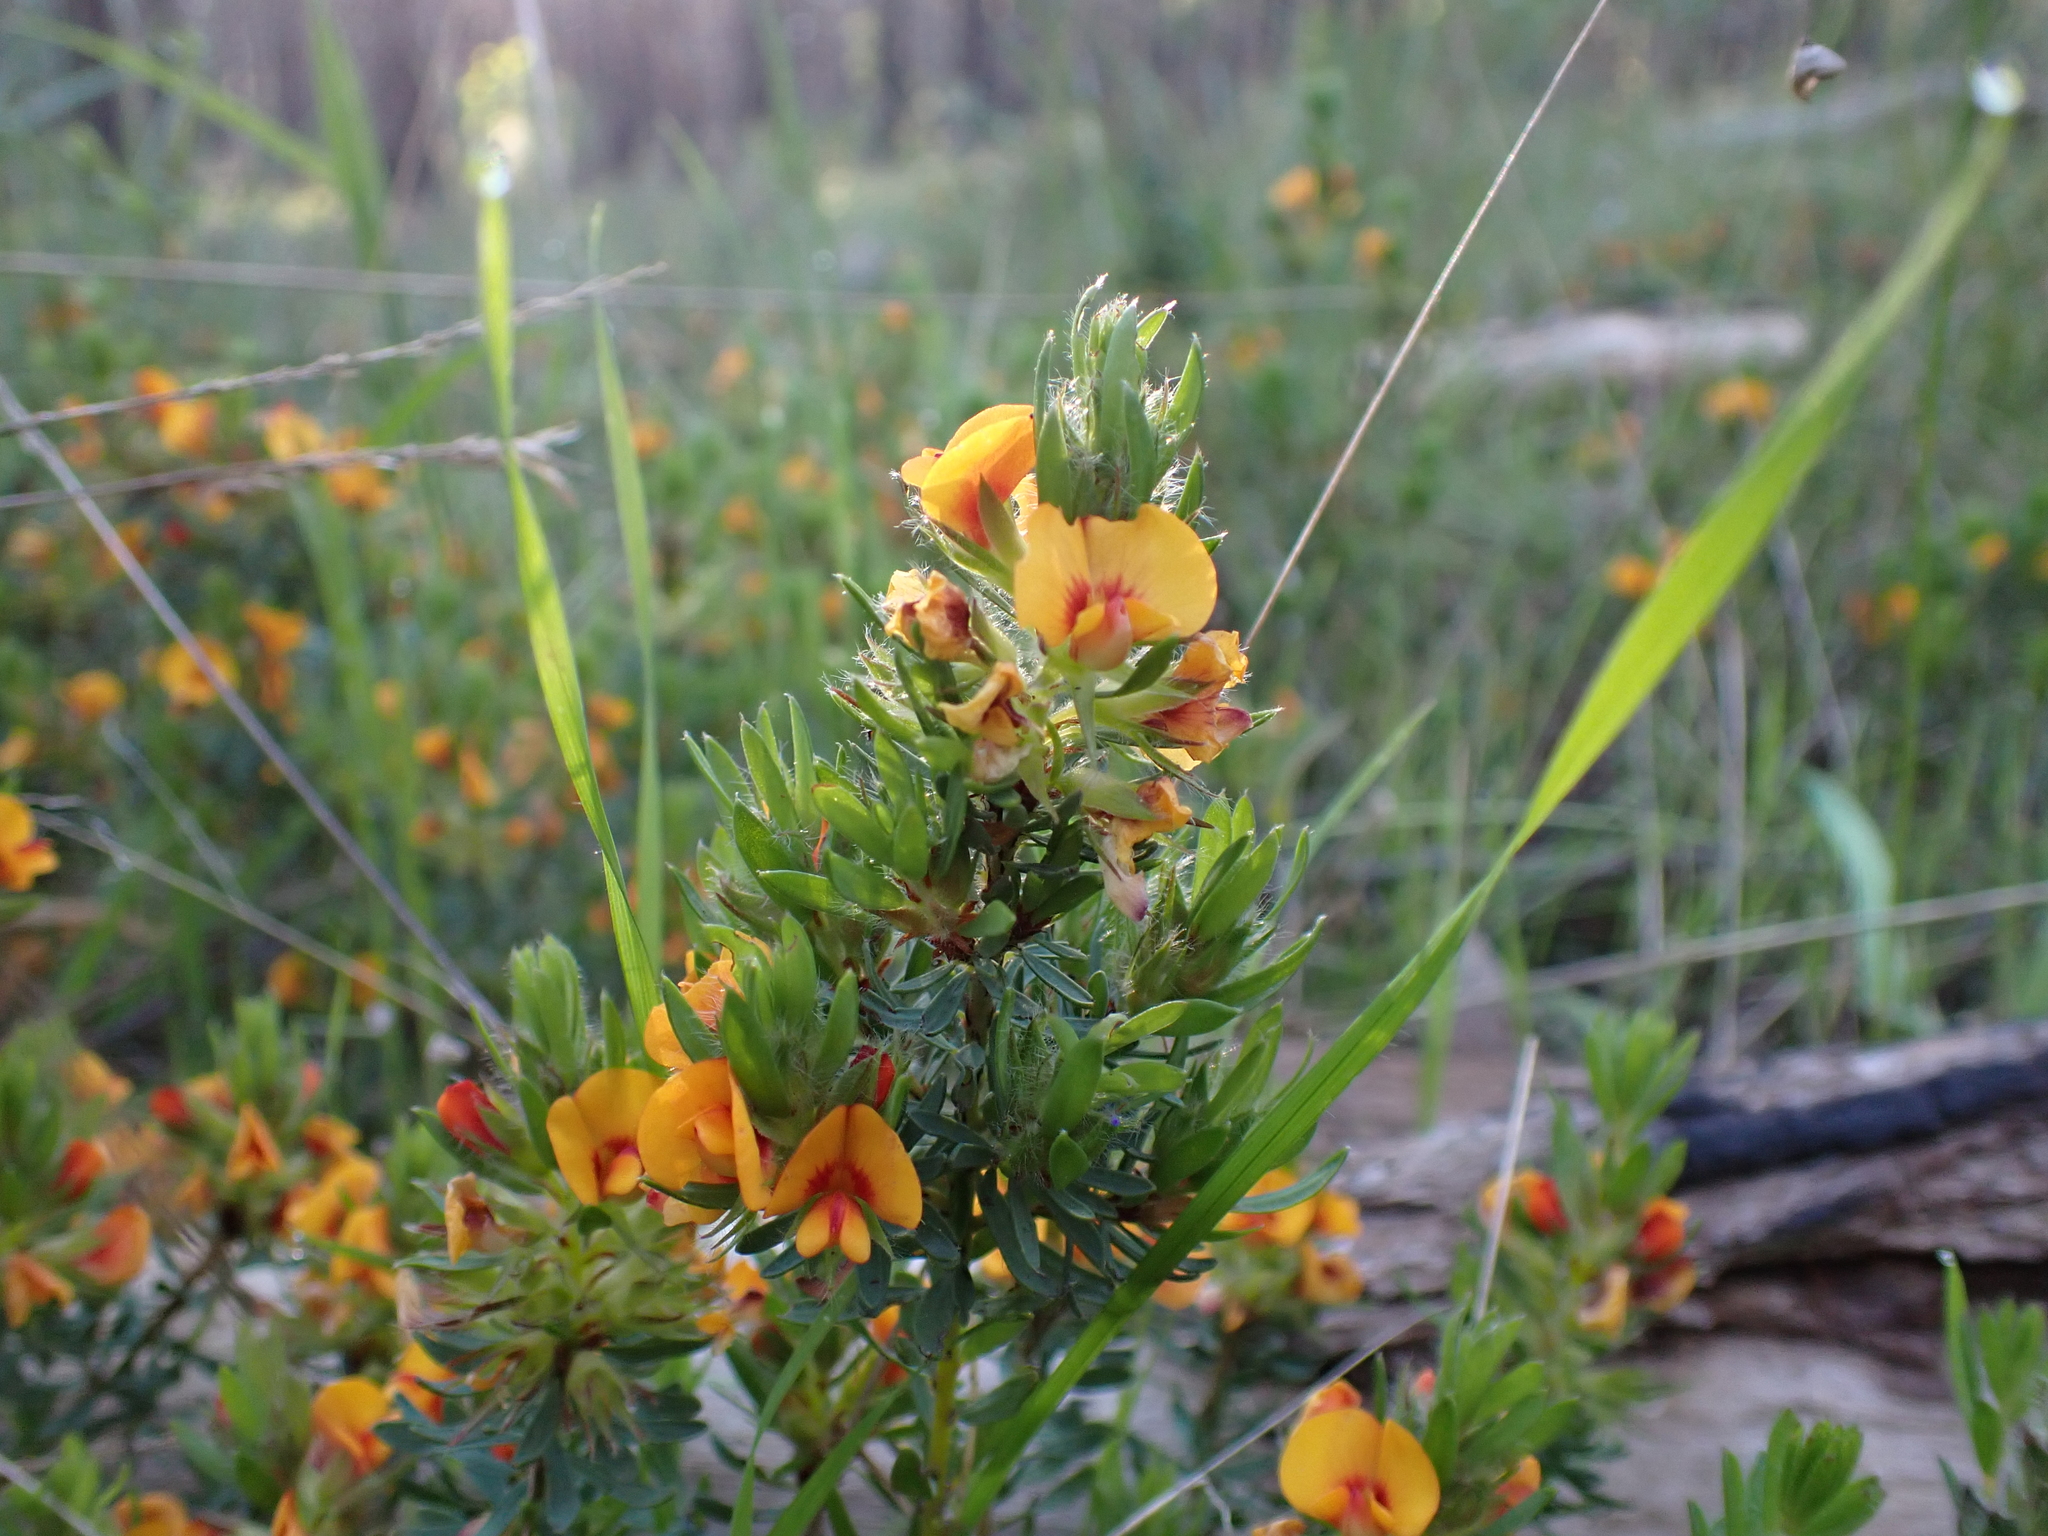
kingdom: Plantae
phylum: Tracheophyta
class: Magnoliopsida
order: Fabales
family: Fabaceae
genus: Pultenaea
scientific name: Pultenaea humilis
